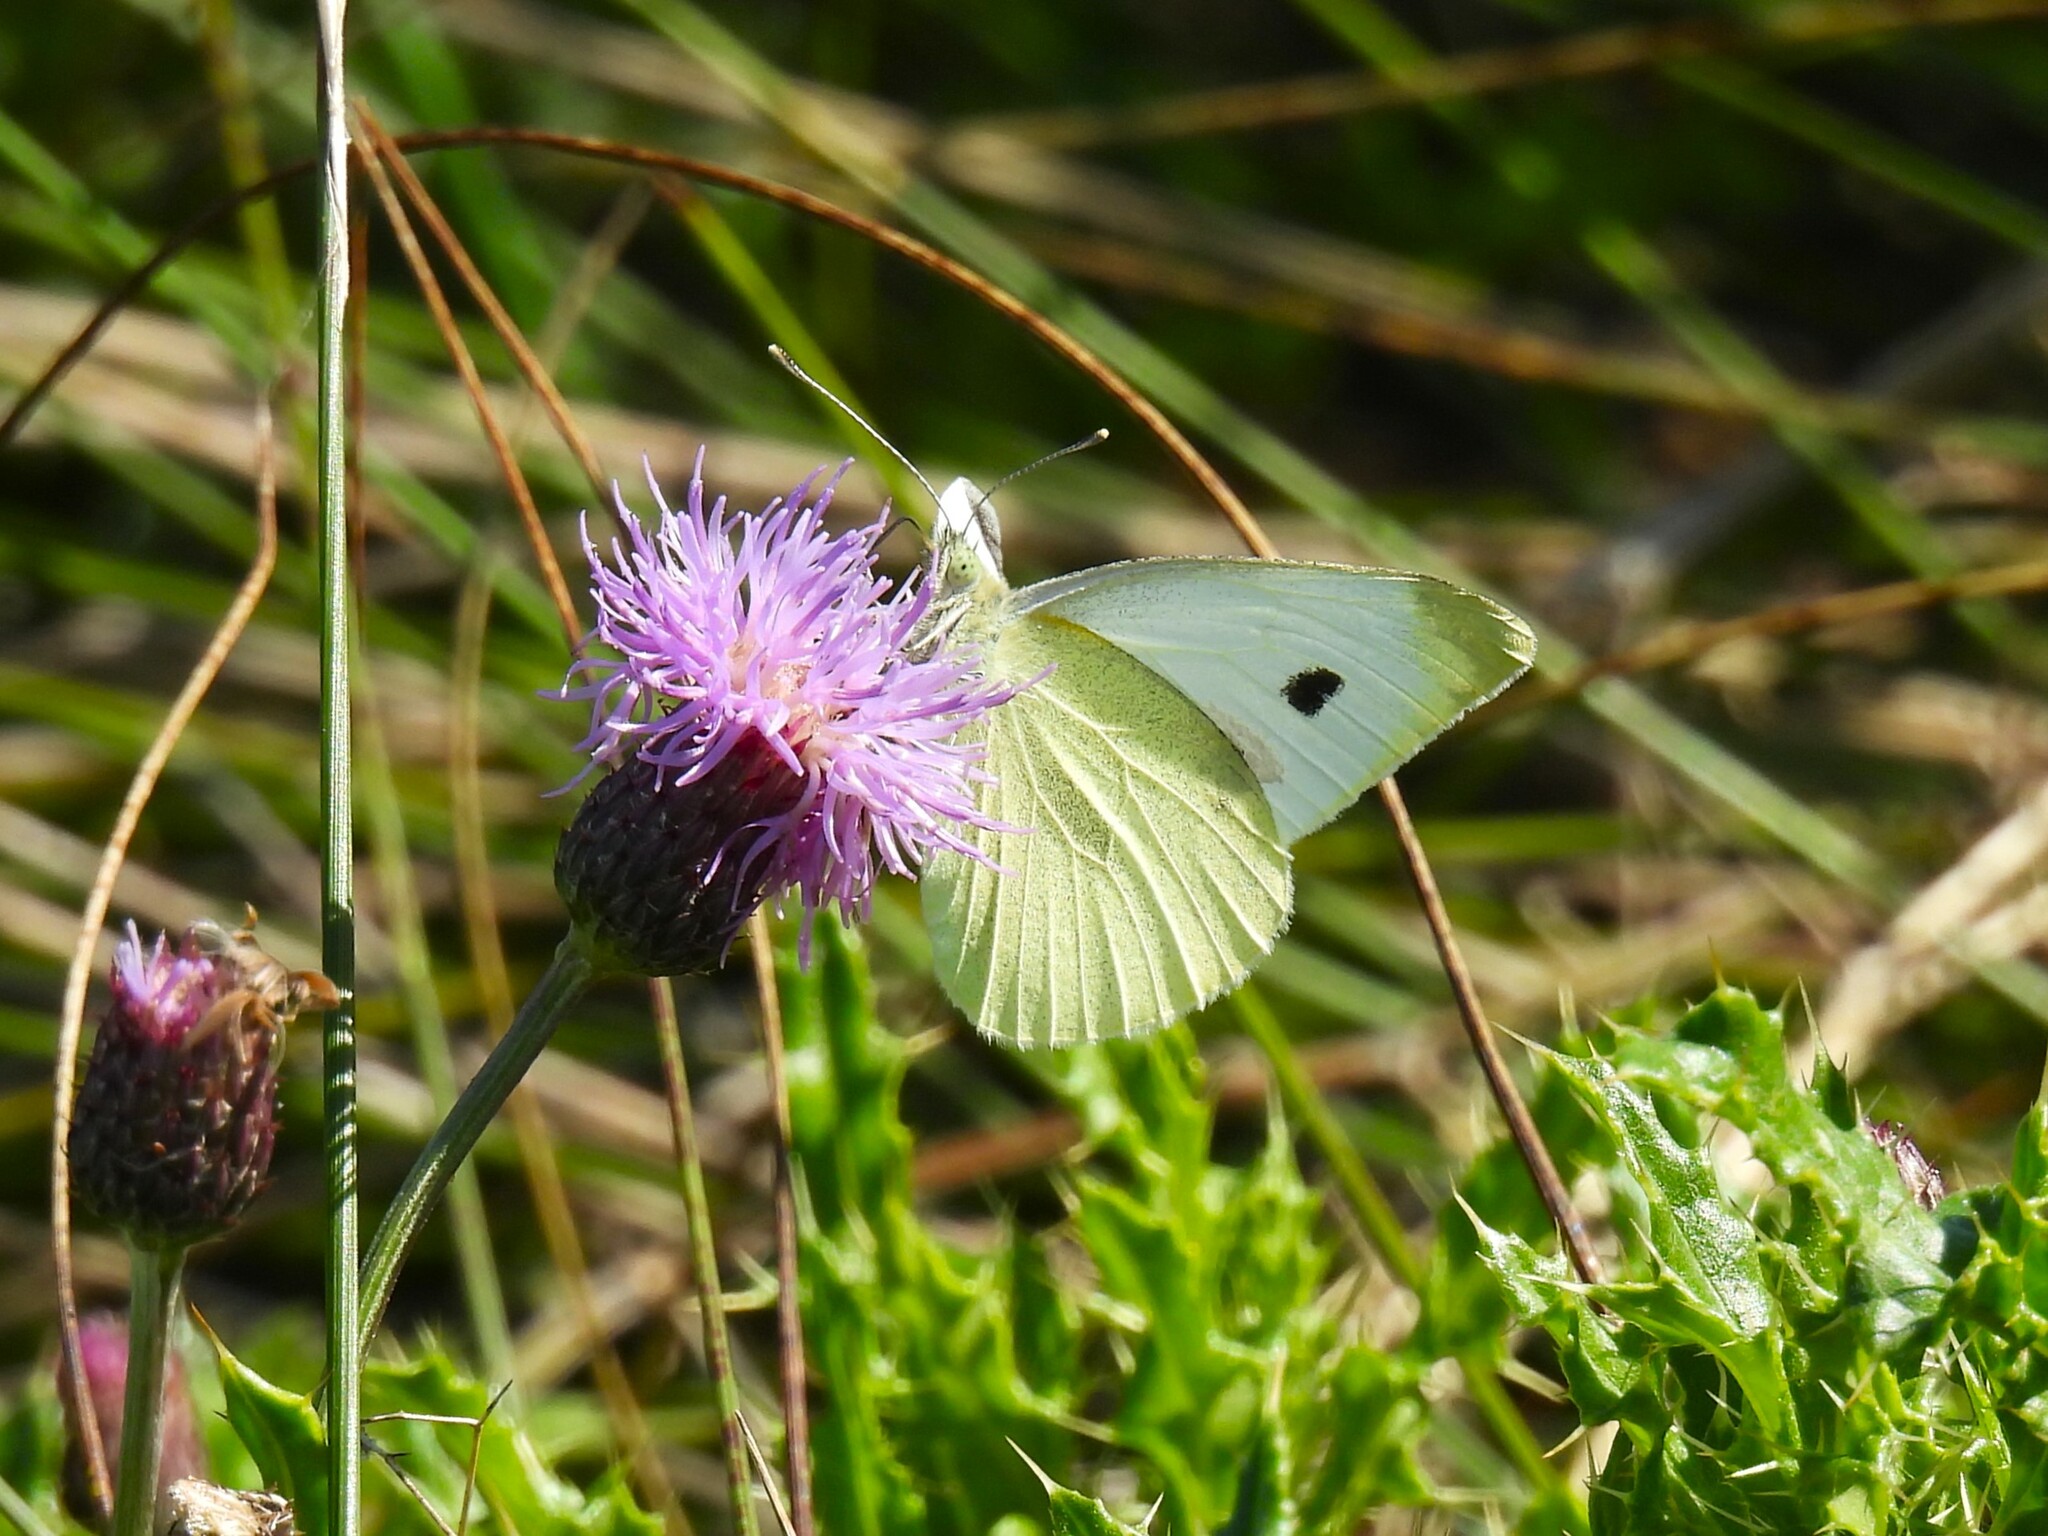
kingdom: Animalia
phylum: Arthropoda
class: Insecta
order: Lepidoptera
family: Pieridae
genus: Pieris
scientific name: Pieris rapae
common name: Small white
